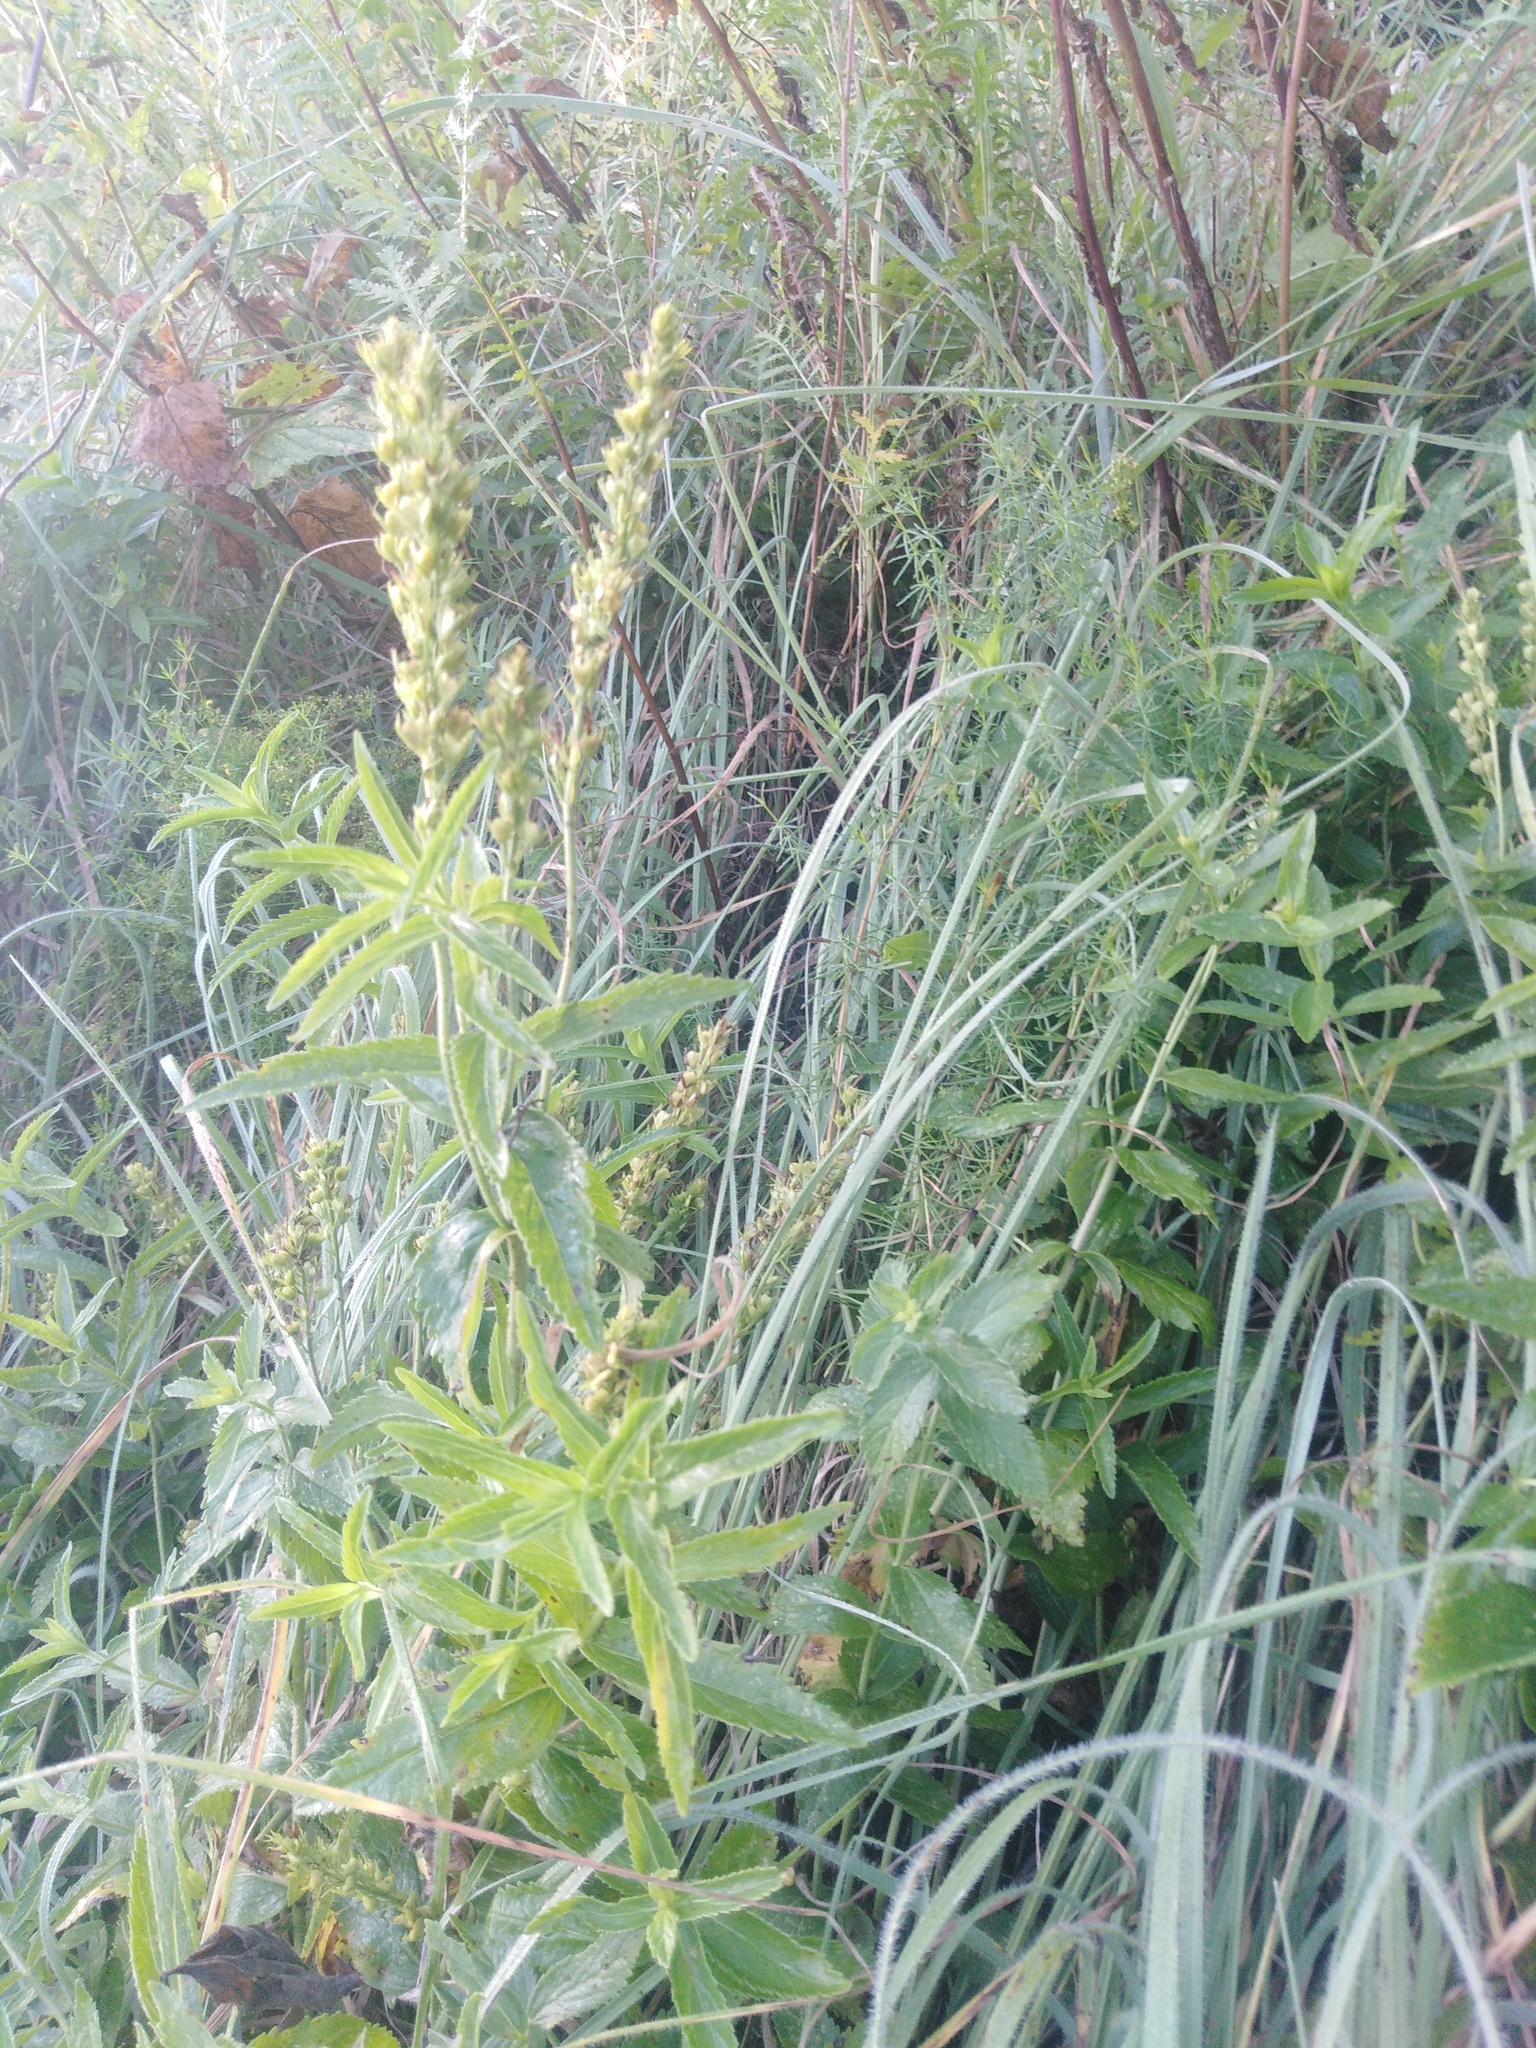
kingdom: Plantae
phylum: Tracheophyta
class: Magnoliopsida
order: Lamiales
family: Plantaginaceae
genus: Veronica
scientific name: Veronica teucrium
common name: Large speedwell
